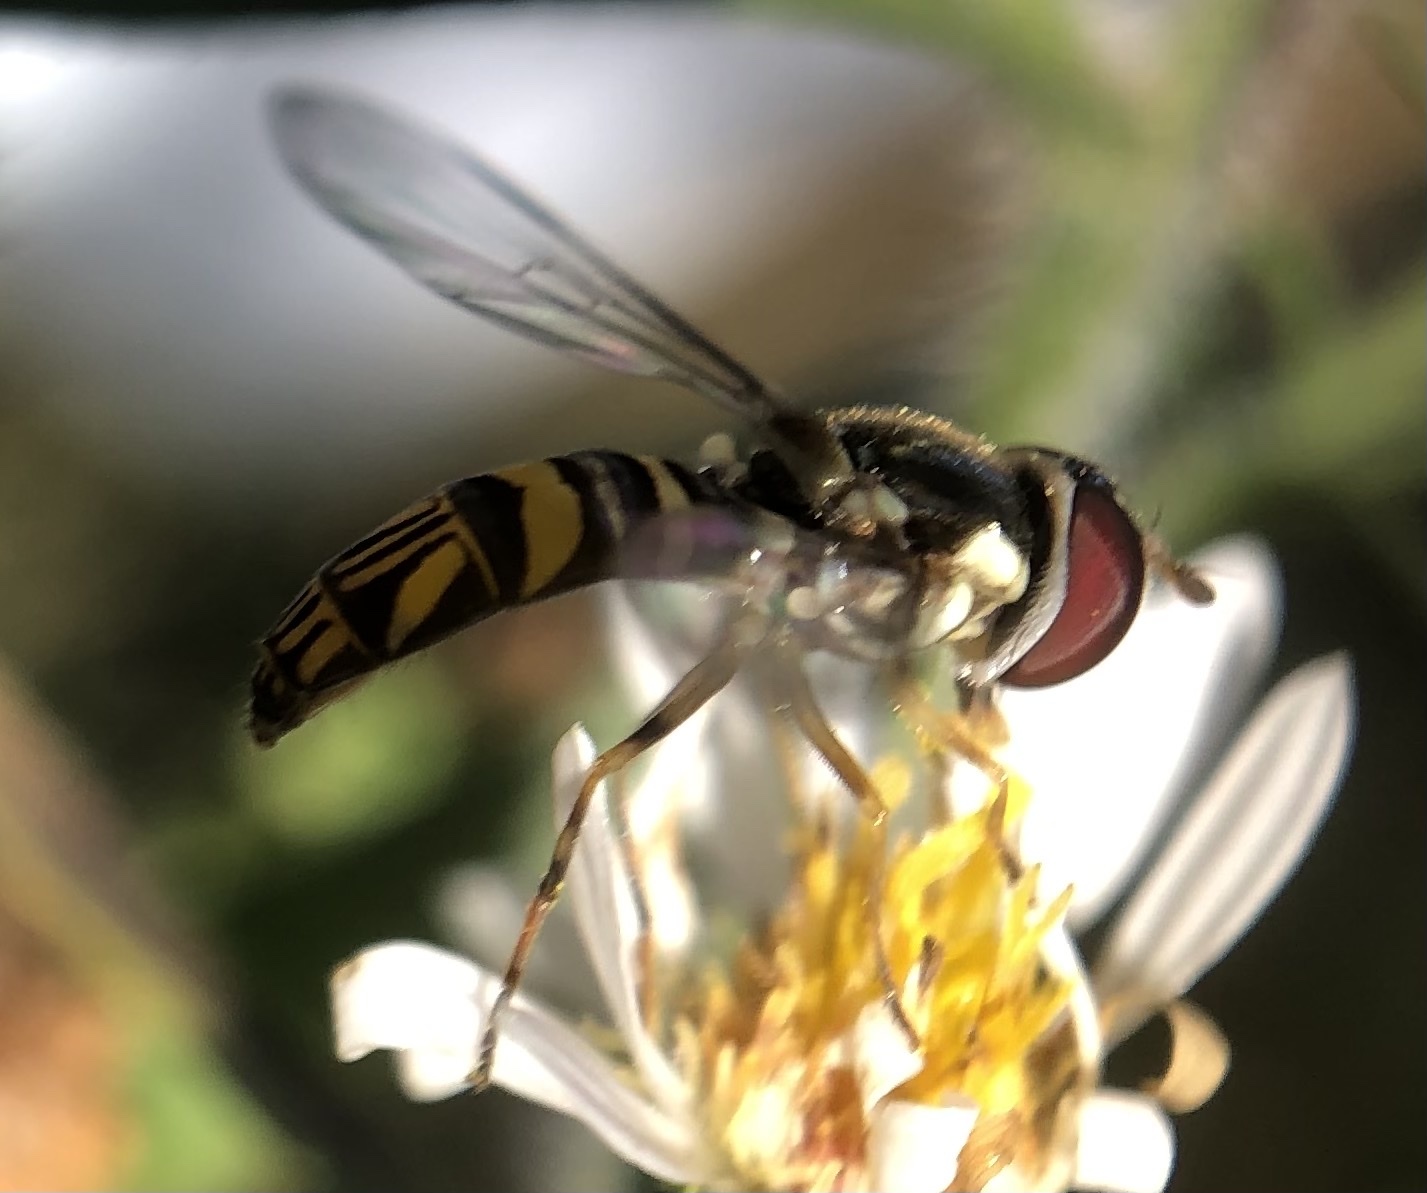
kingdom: Animalia
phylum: Arthropoda
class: Insecta
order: Diptera
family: Syrphidae
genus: Allograpta
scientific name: Allograpta obliqua
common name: Common oblique syrphid
